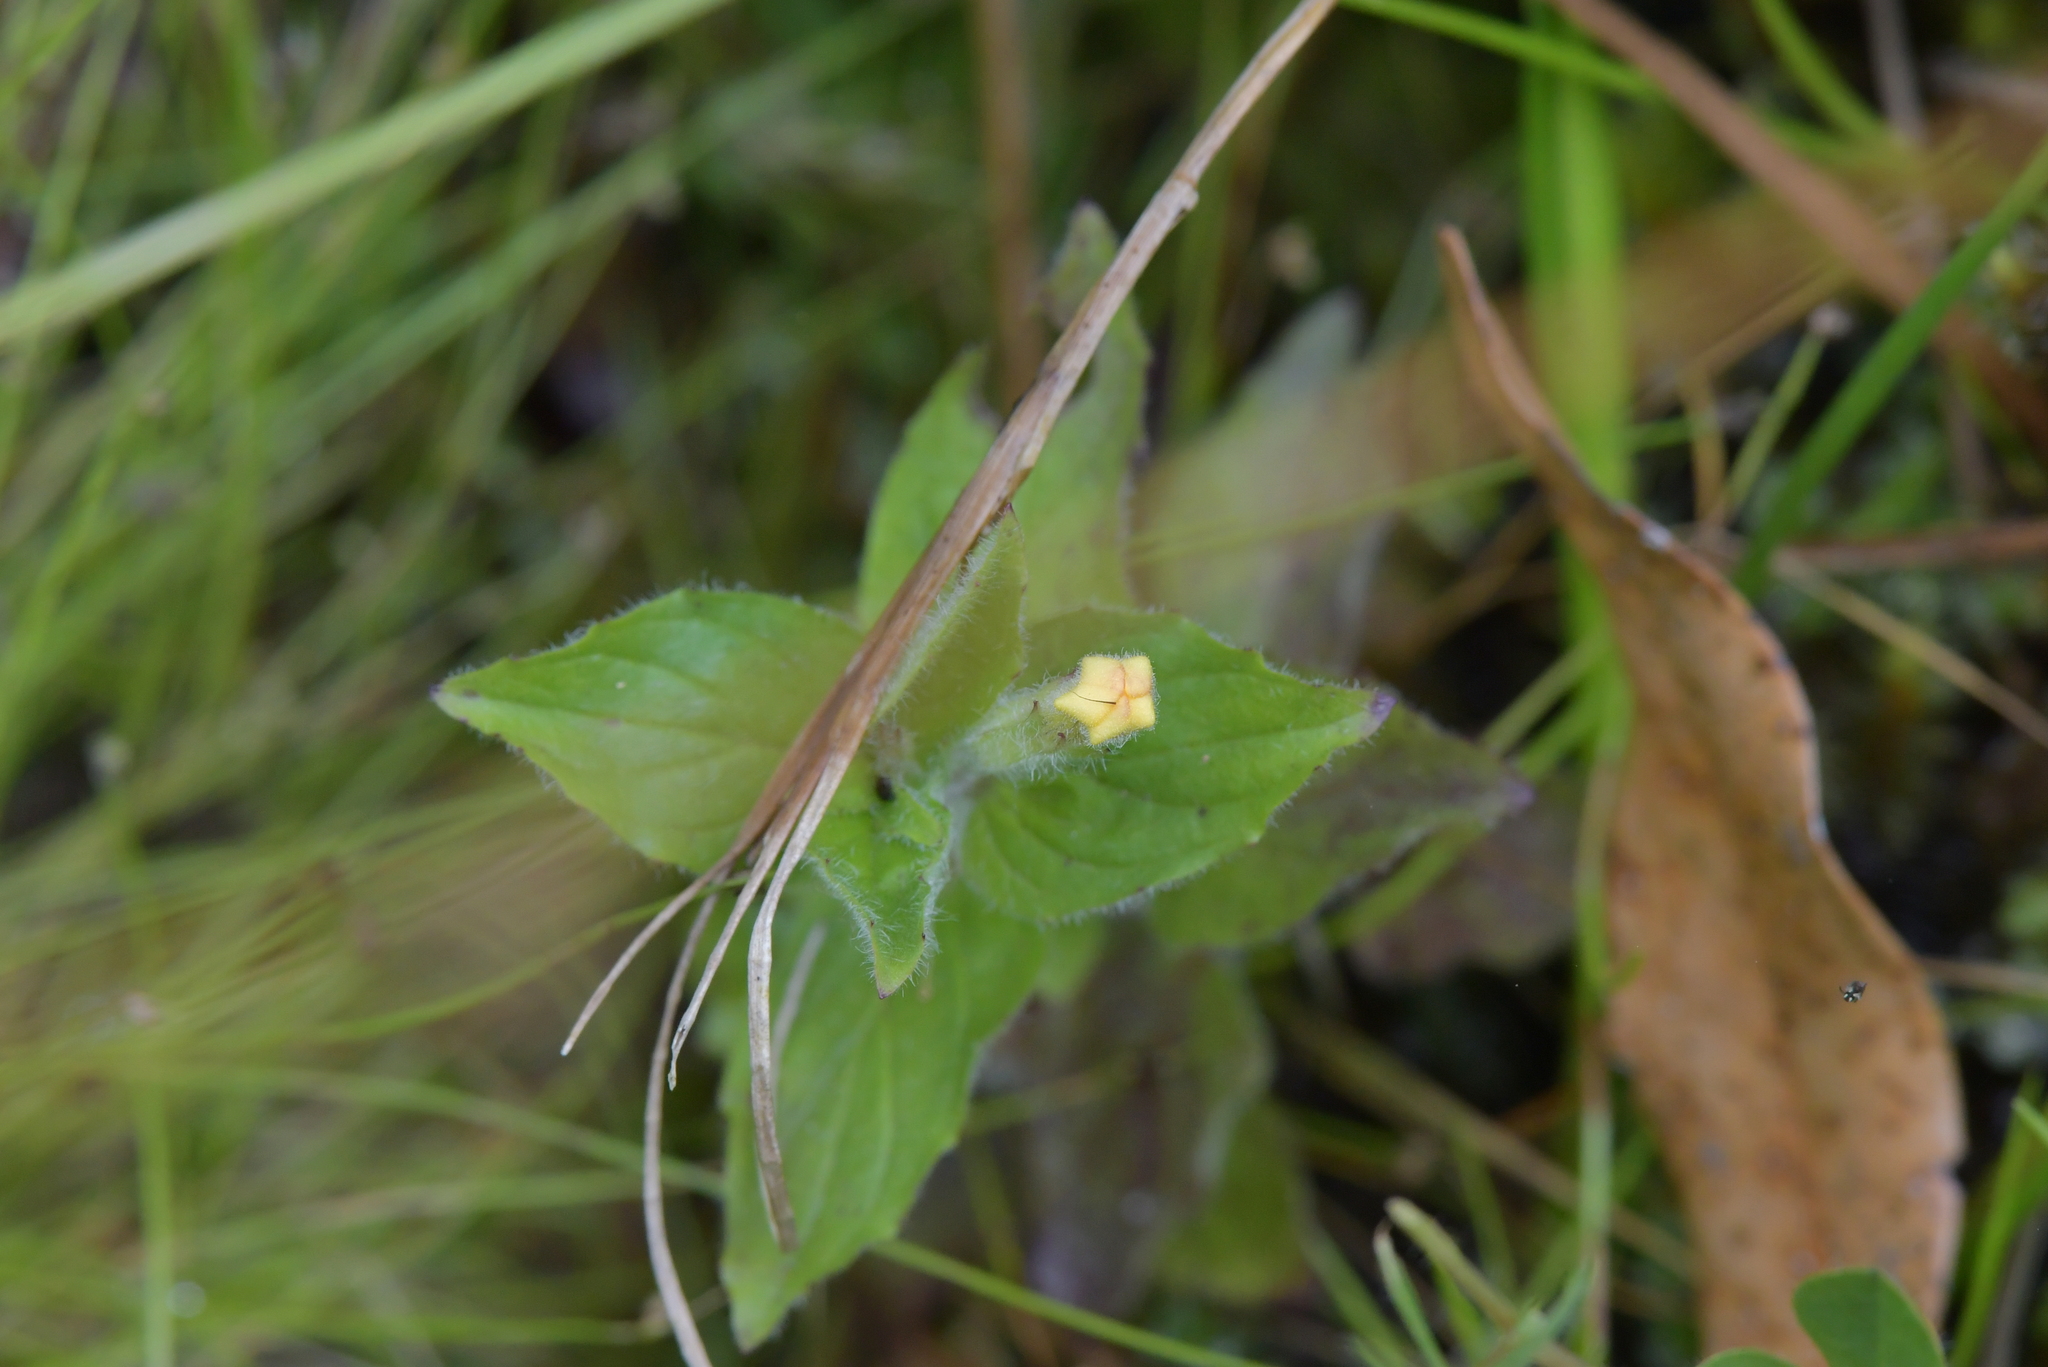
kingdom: Plantae
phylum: Tracheophyta
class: Magnoliopsida
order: Lamiales
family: Phrymaceae
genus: Erythranthe
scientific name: Erythranthe moschata
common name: Muskflower
